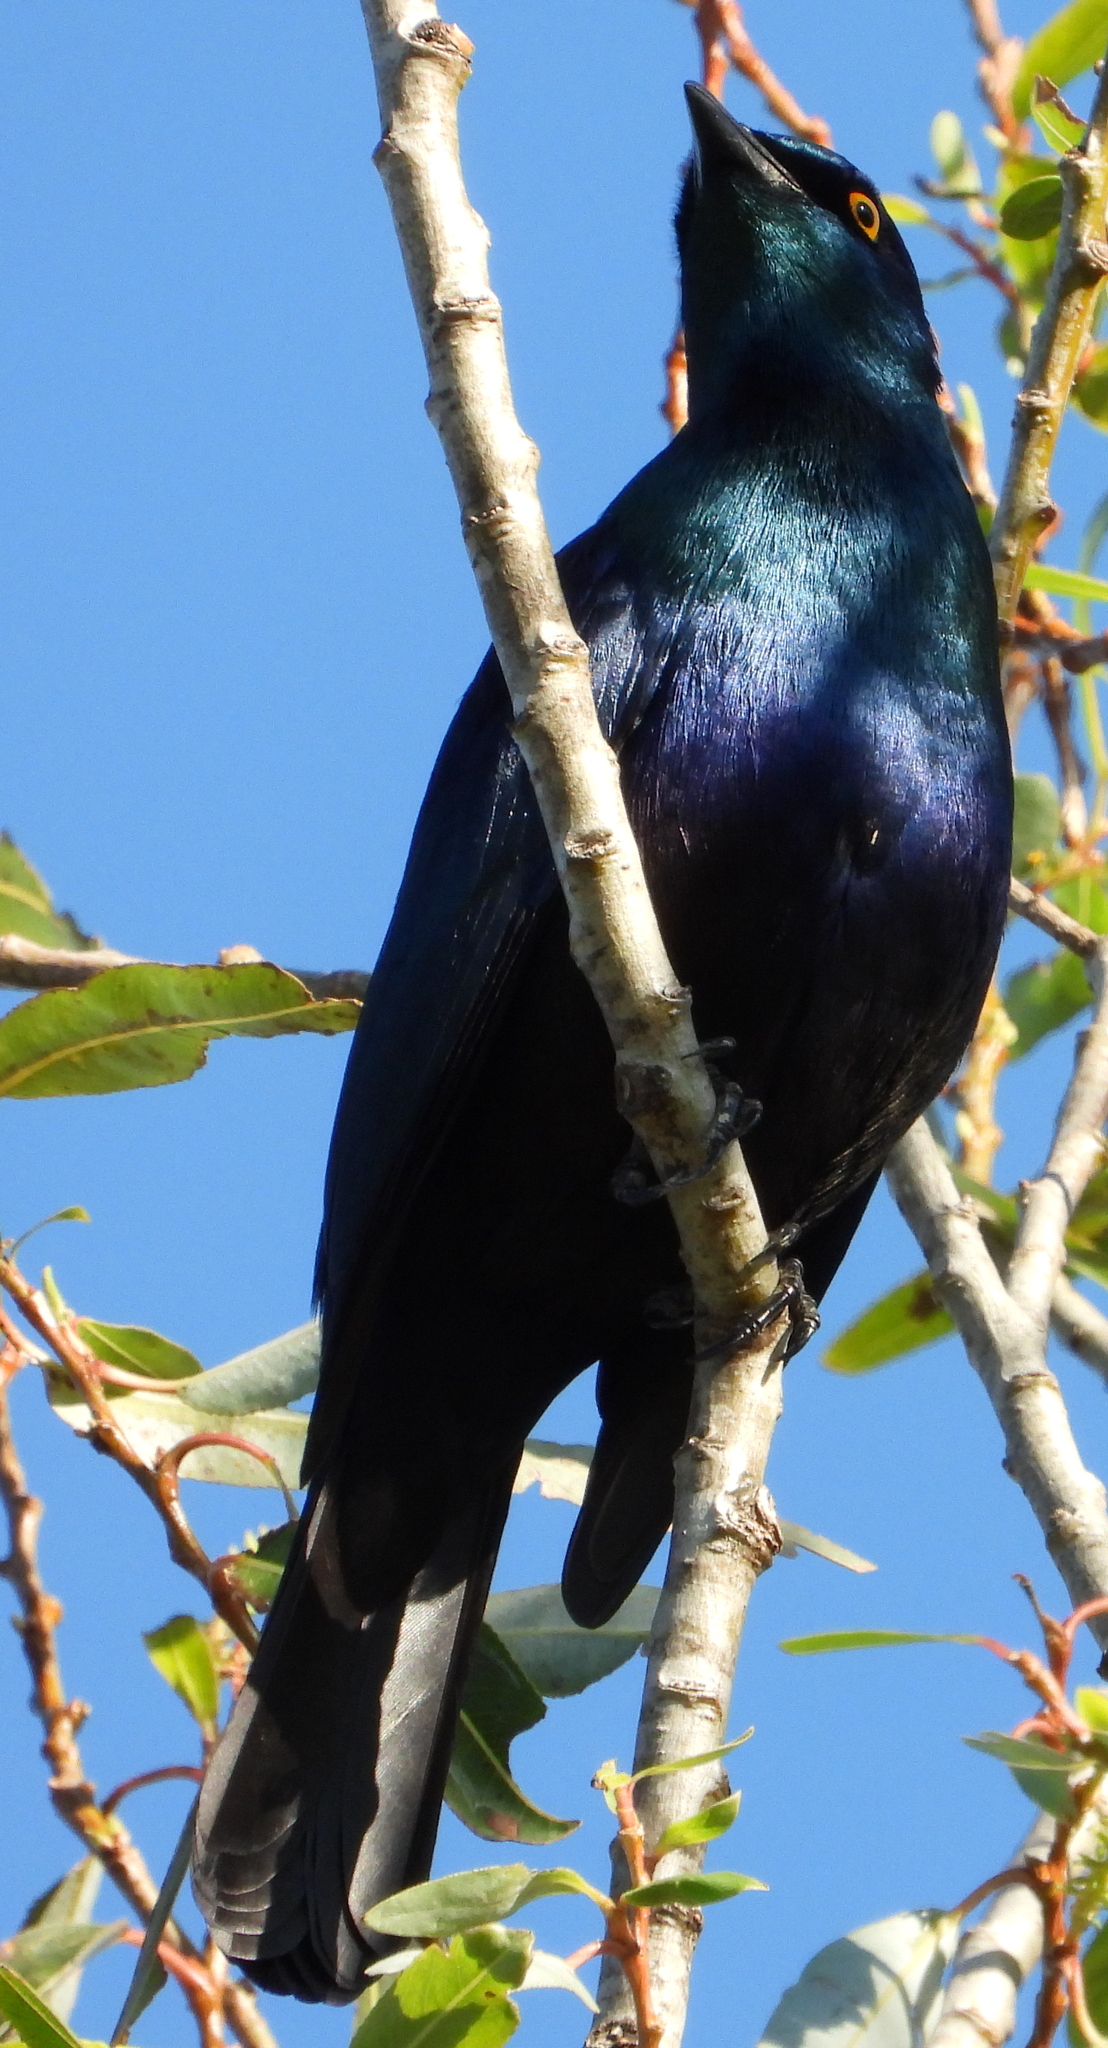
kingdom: Animalia
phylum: Chordata
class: Aves
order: Passeriformes
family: Sturnidae
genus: Notopholia
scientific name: Notopholia corrusca
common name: Black-bellied starling
